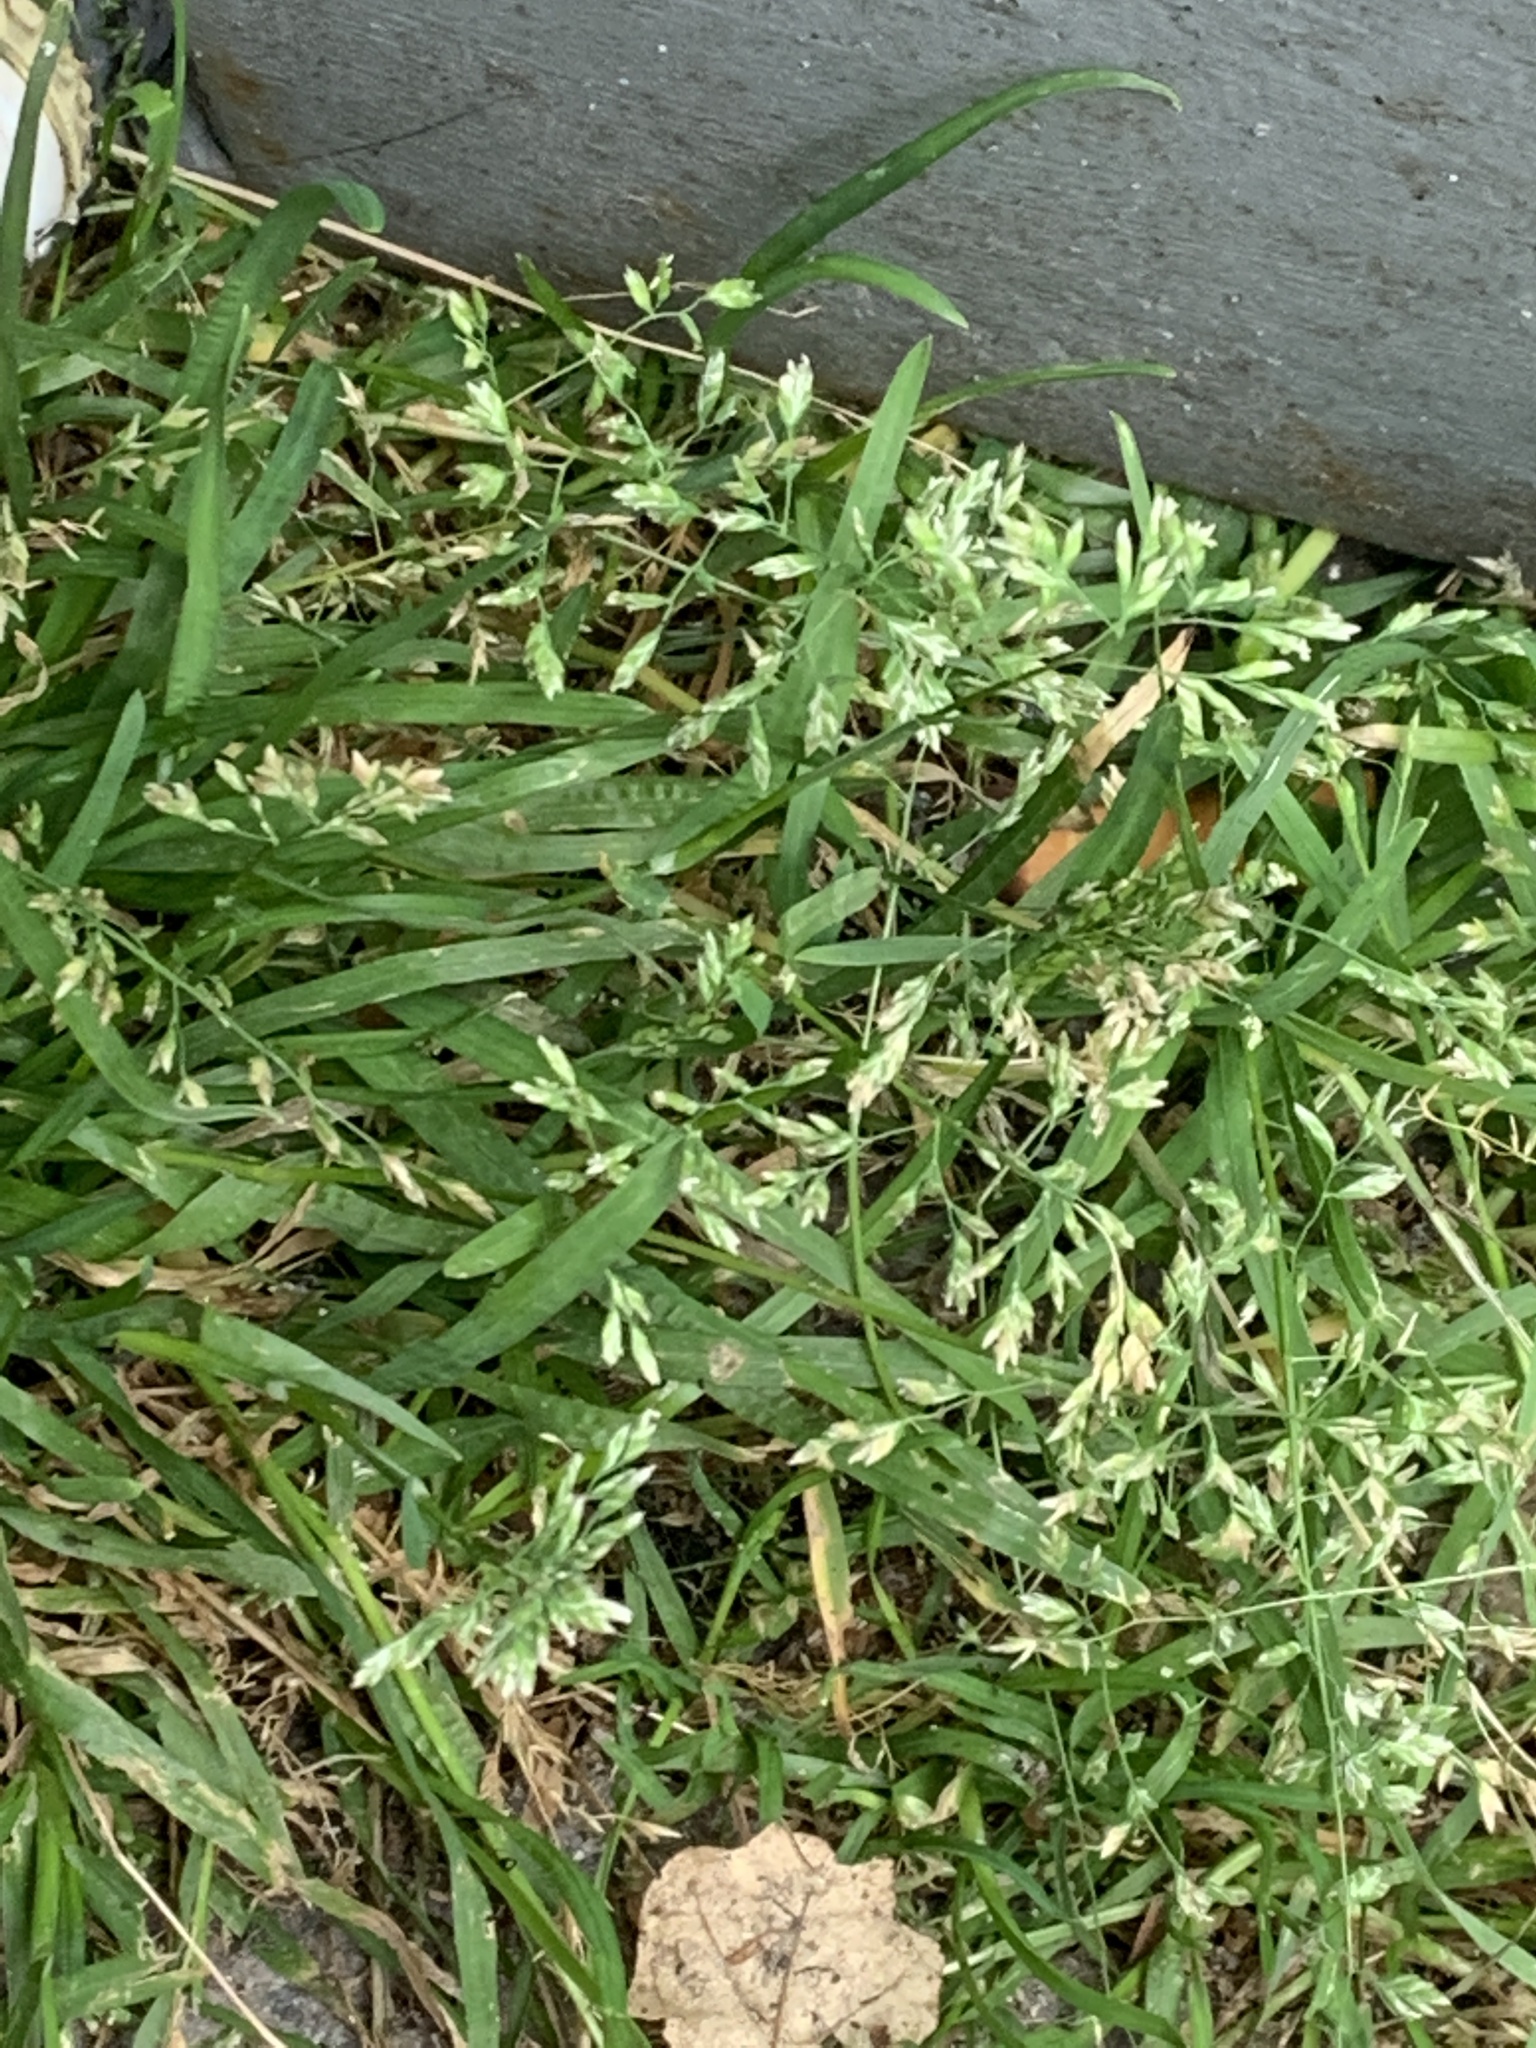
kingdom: Plantae
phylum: Tracheophyta
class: Liliopsida
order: Poales
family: Poaceae
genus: Poa
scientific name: Poa annua
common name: Annual bluegrass
